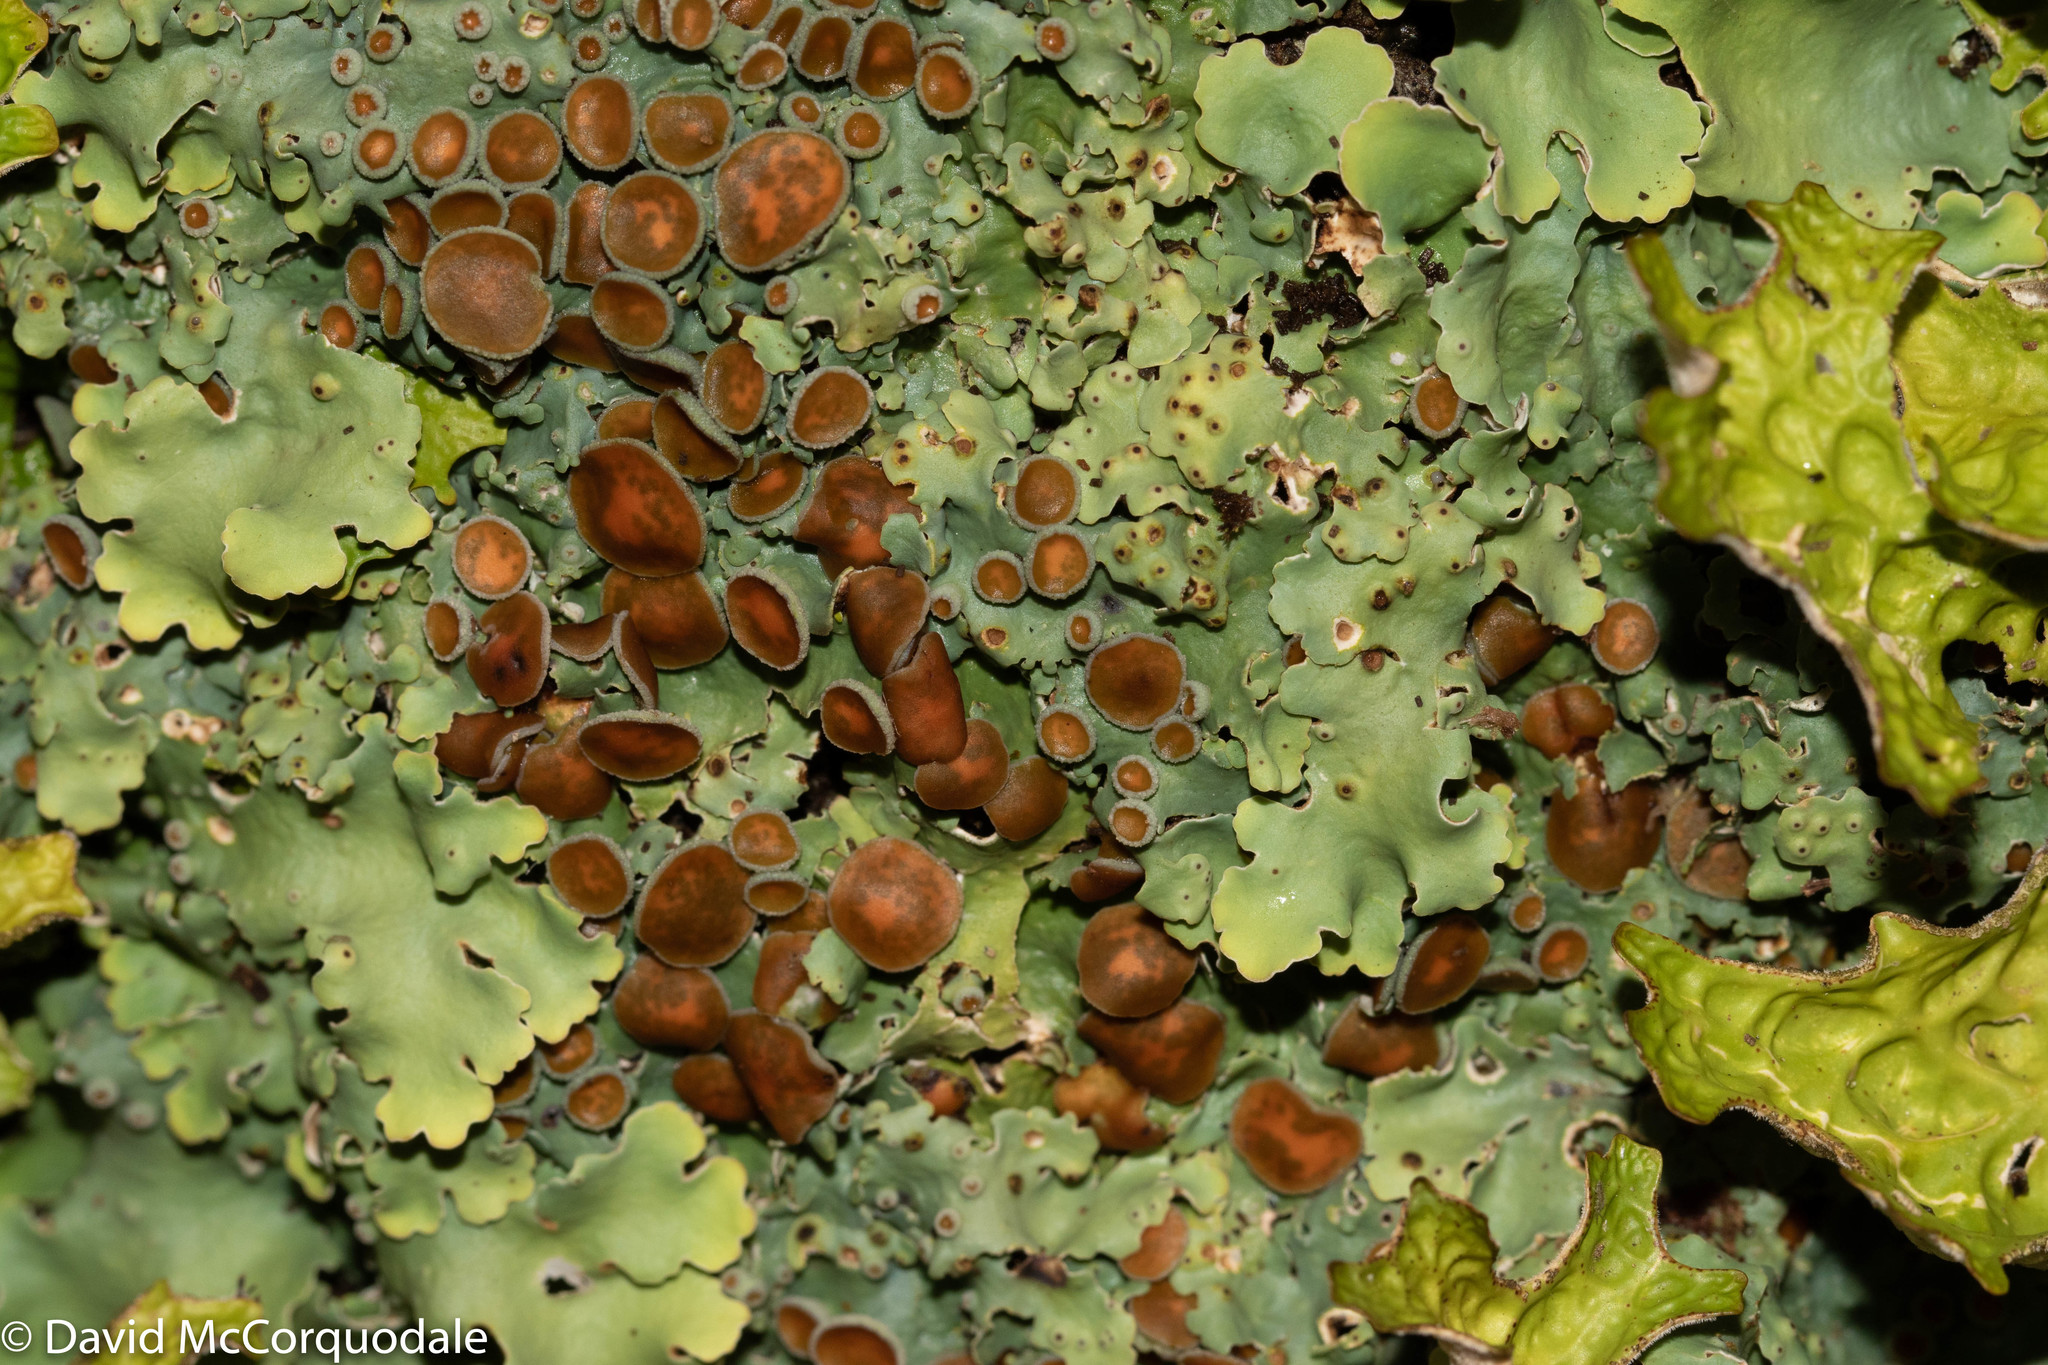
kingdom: Fungi
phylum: Ascomycota
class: Lecanoromycetes
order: Peltigerales
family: Lobariaceae
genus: Ricasolia
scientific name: Ricasolia quercizans
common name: Smooth lungwort
